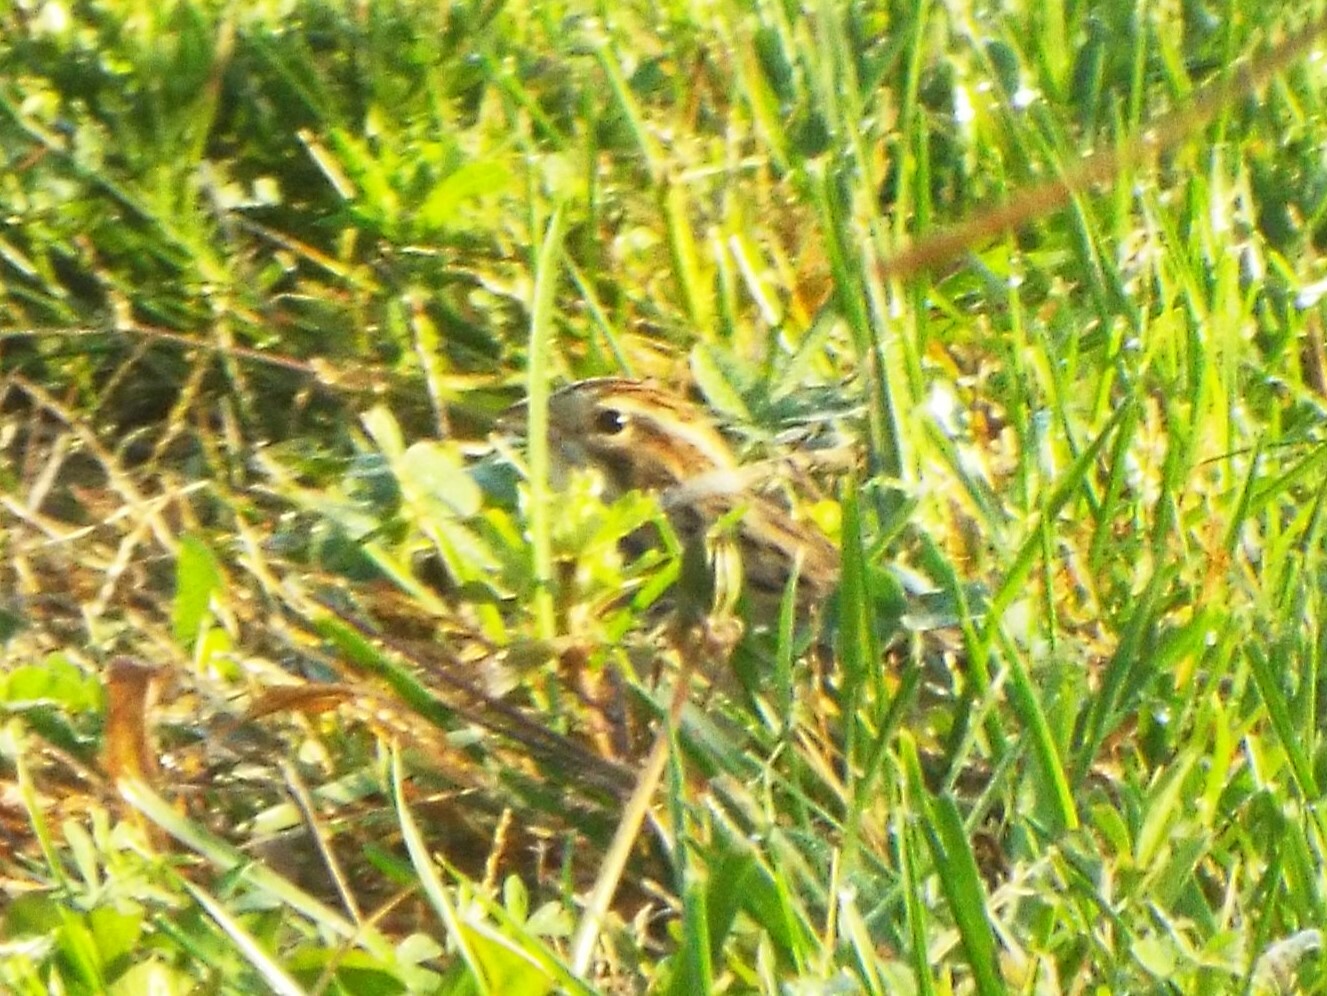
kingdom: Animalia
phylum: Chordata
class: Aves
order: Passeriformes
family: Passerellidae
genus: Spizella
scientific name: Spizella pallida
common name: Clay-colored sparrow
